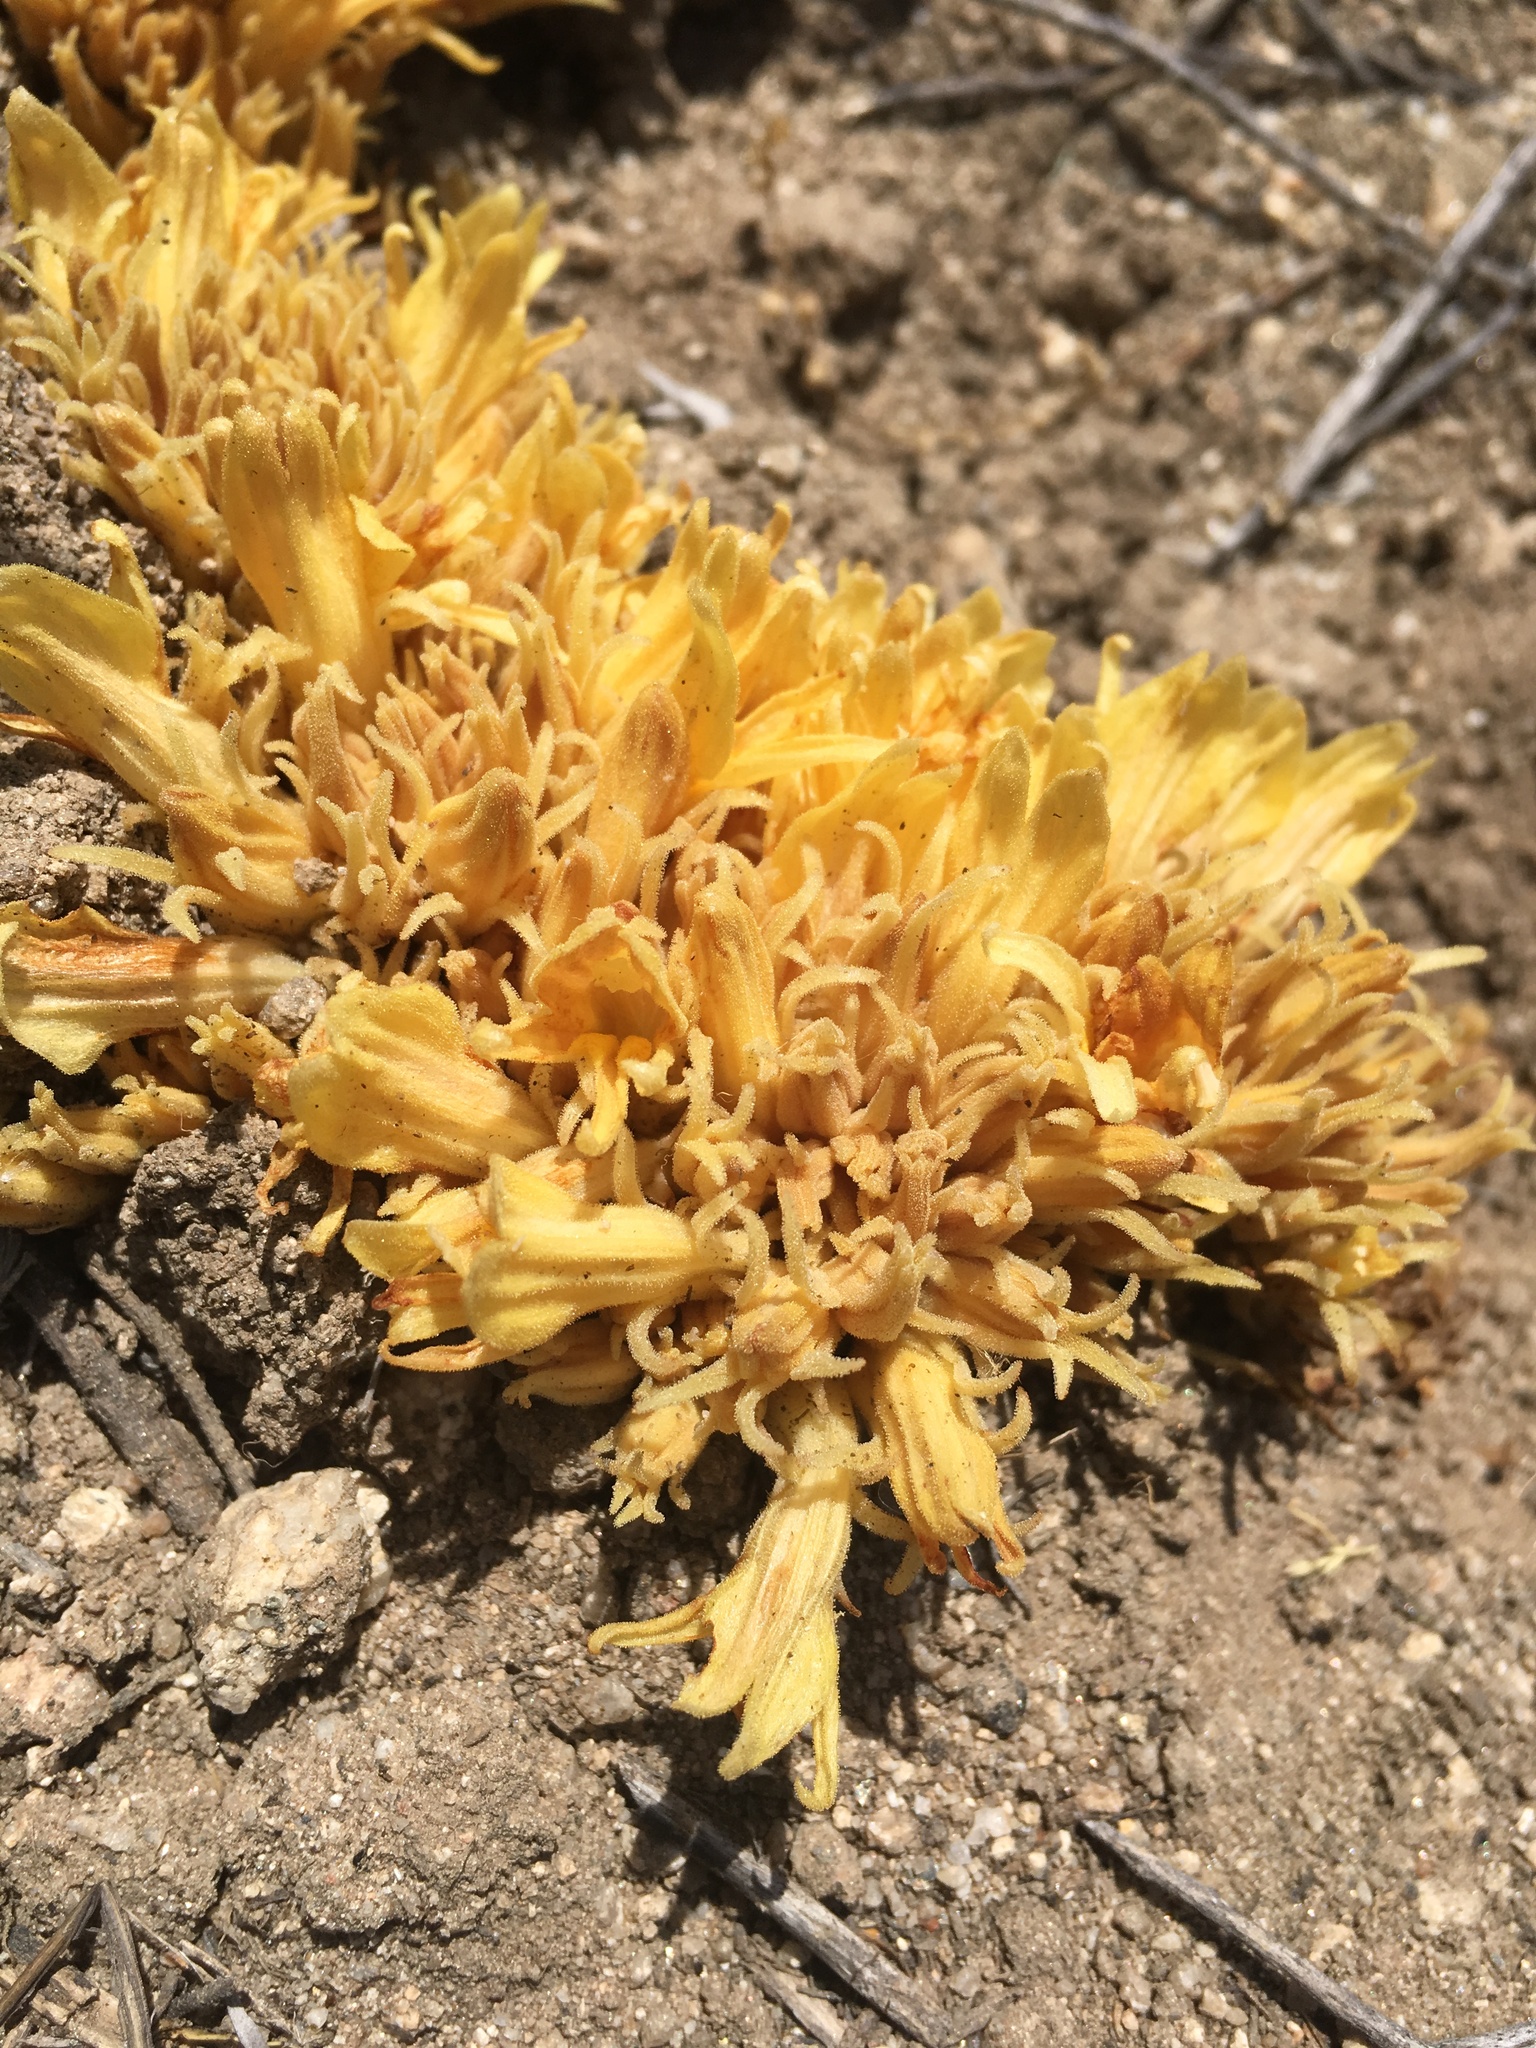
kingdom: Plantae
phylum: Tracheophyta
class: Magnoliopsida
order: Lamiales
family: Orobanchaceae
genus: Aphyllon
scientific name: Aphyllon californicum
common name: California broomrape
